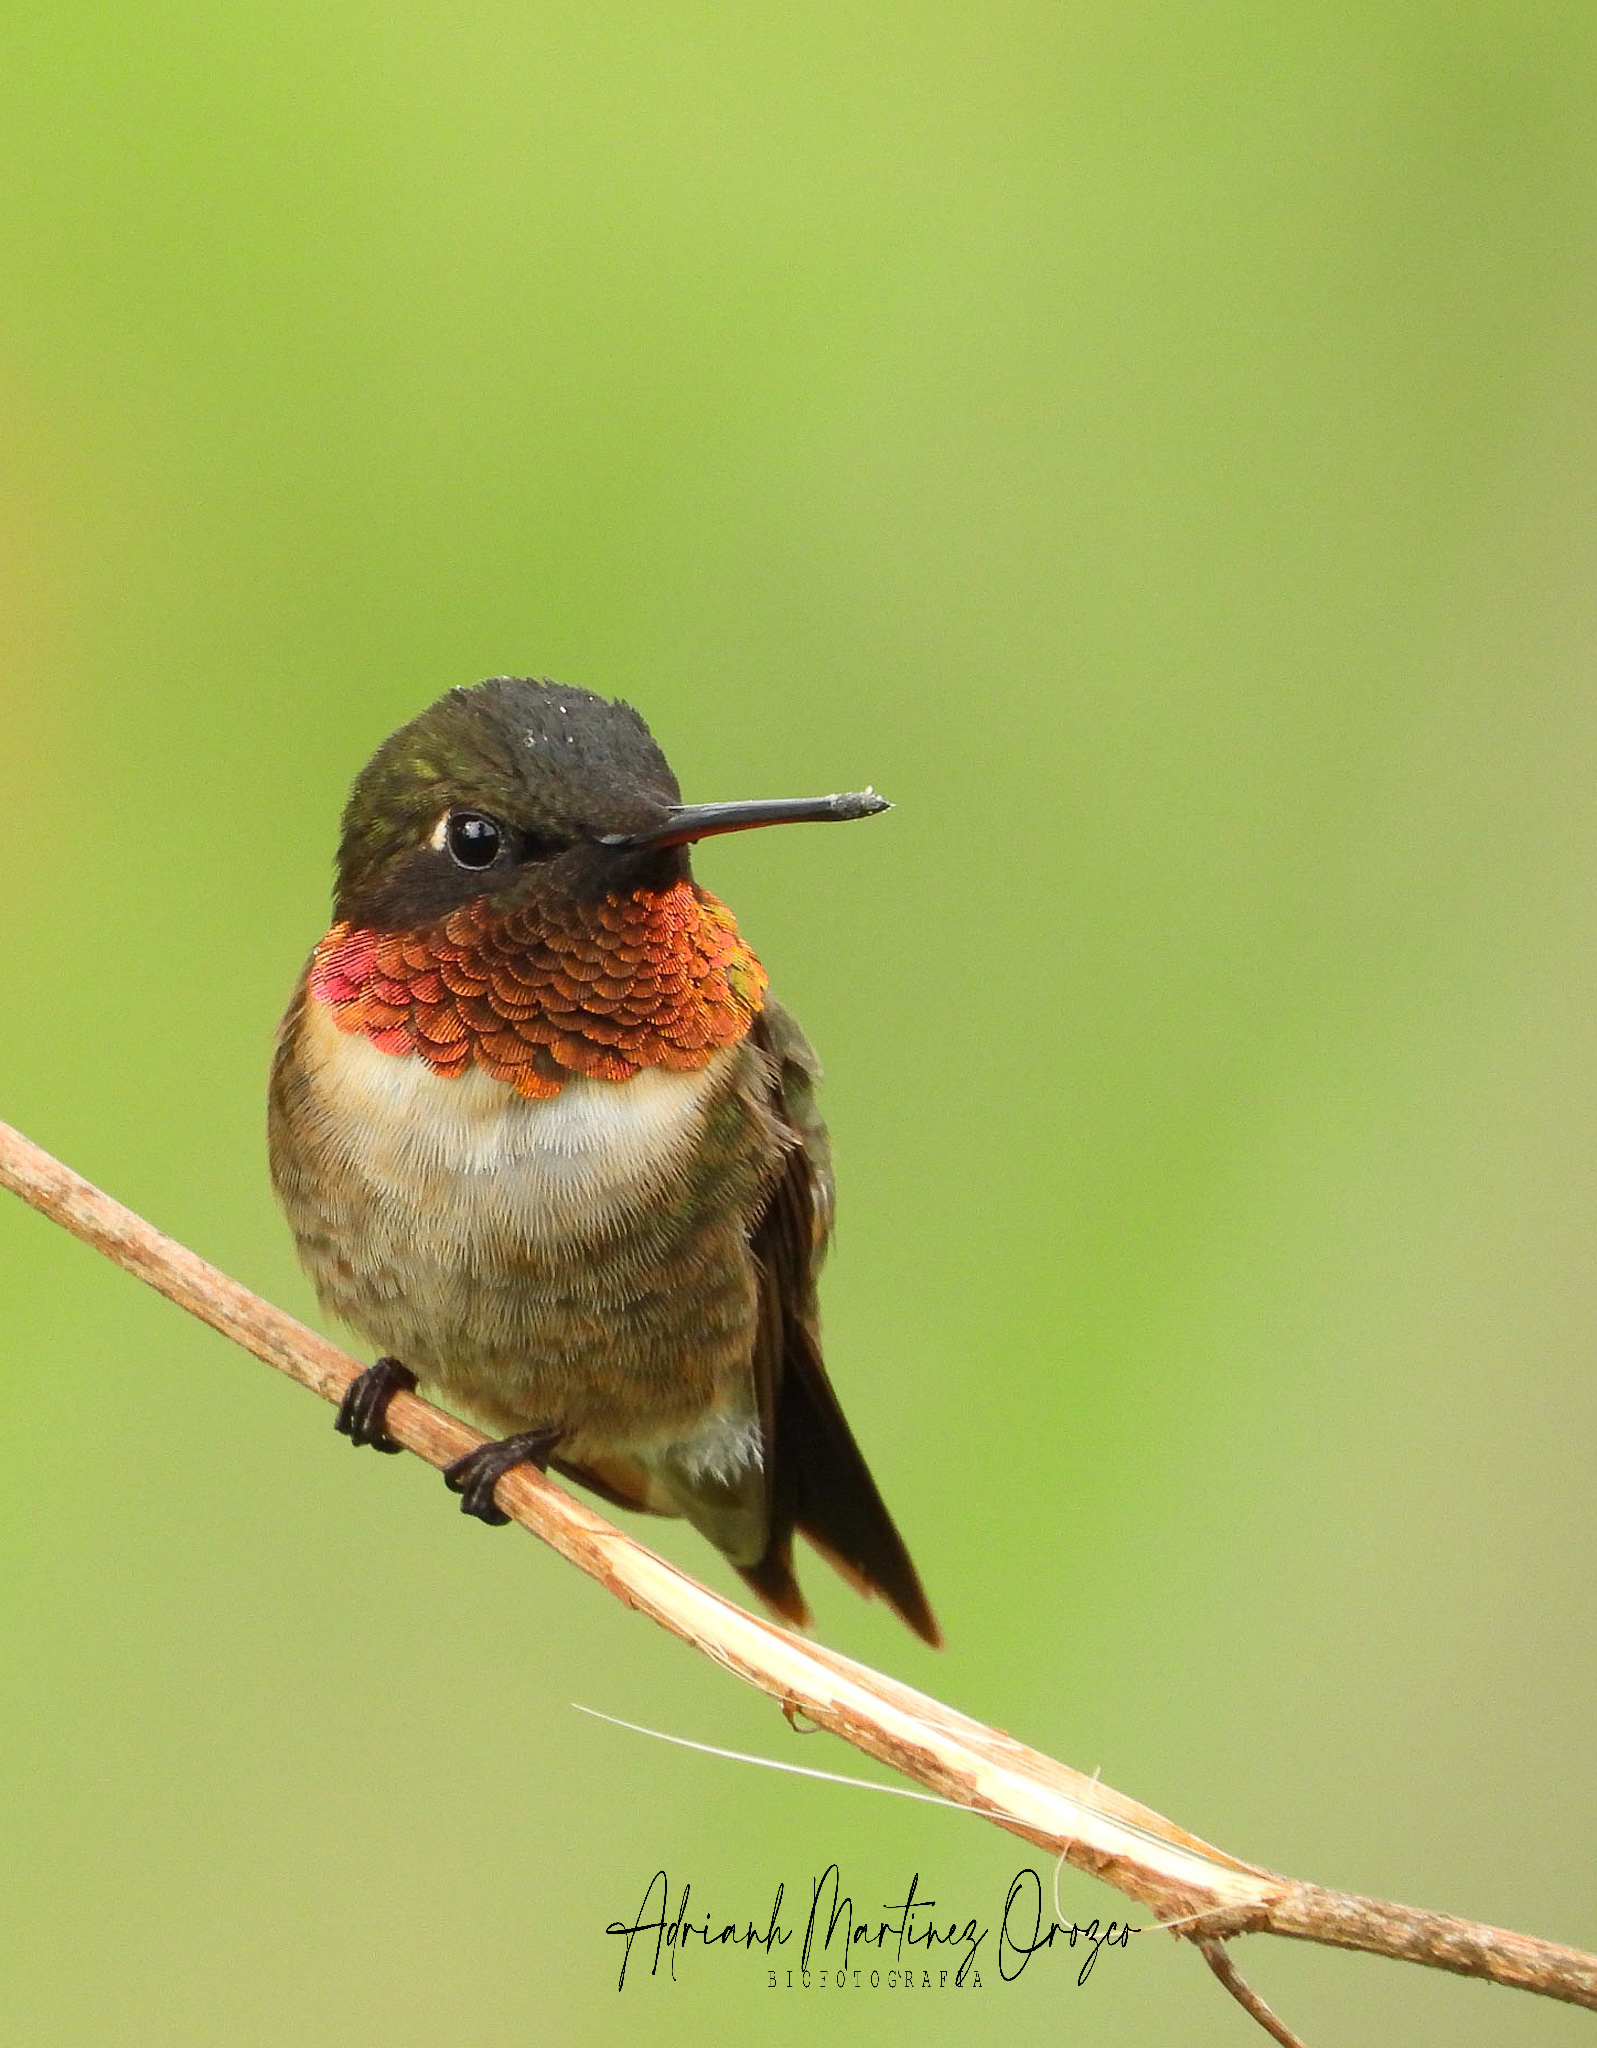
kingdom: Animalia
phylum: Chordata
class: Aves
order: Apodiformes
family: Trochilidae
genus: Archilochus
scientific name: Archilochus colubris
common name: Ruby-throated hummingbird
